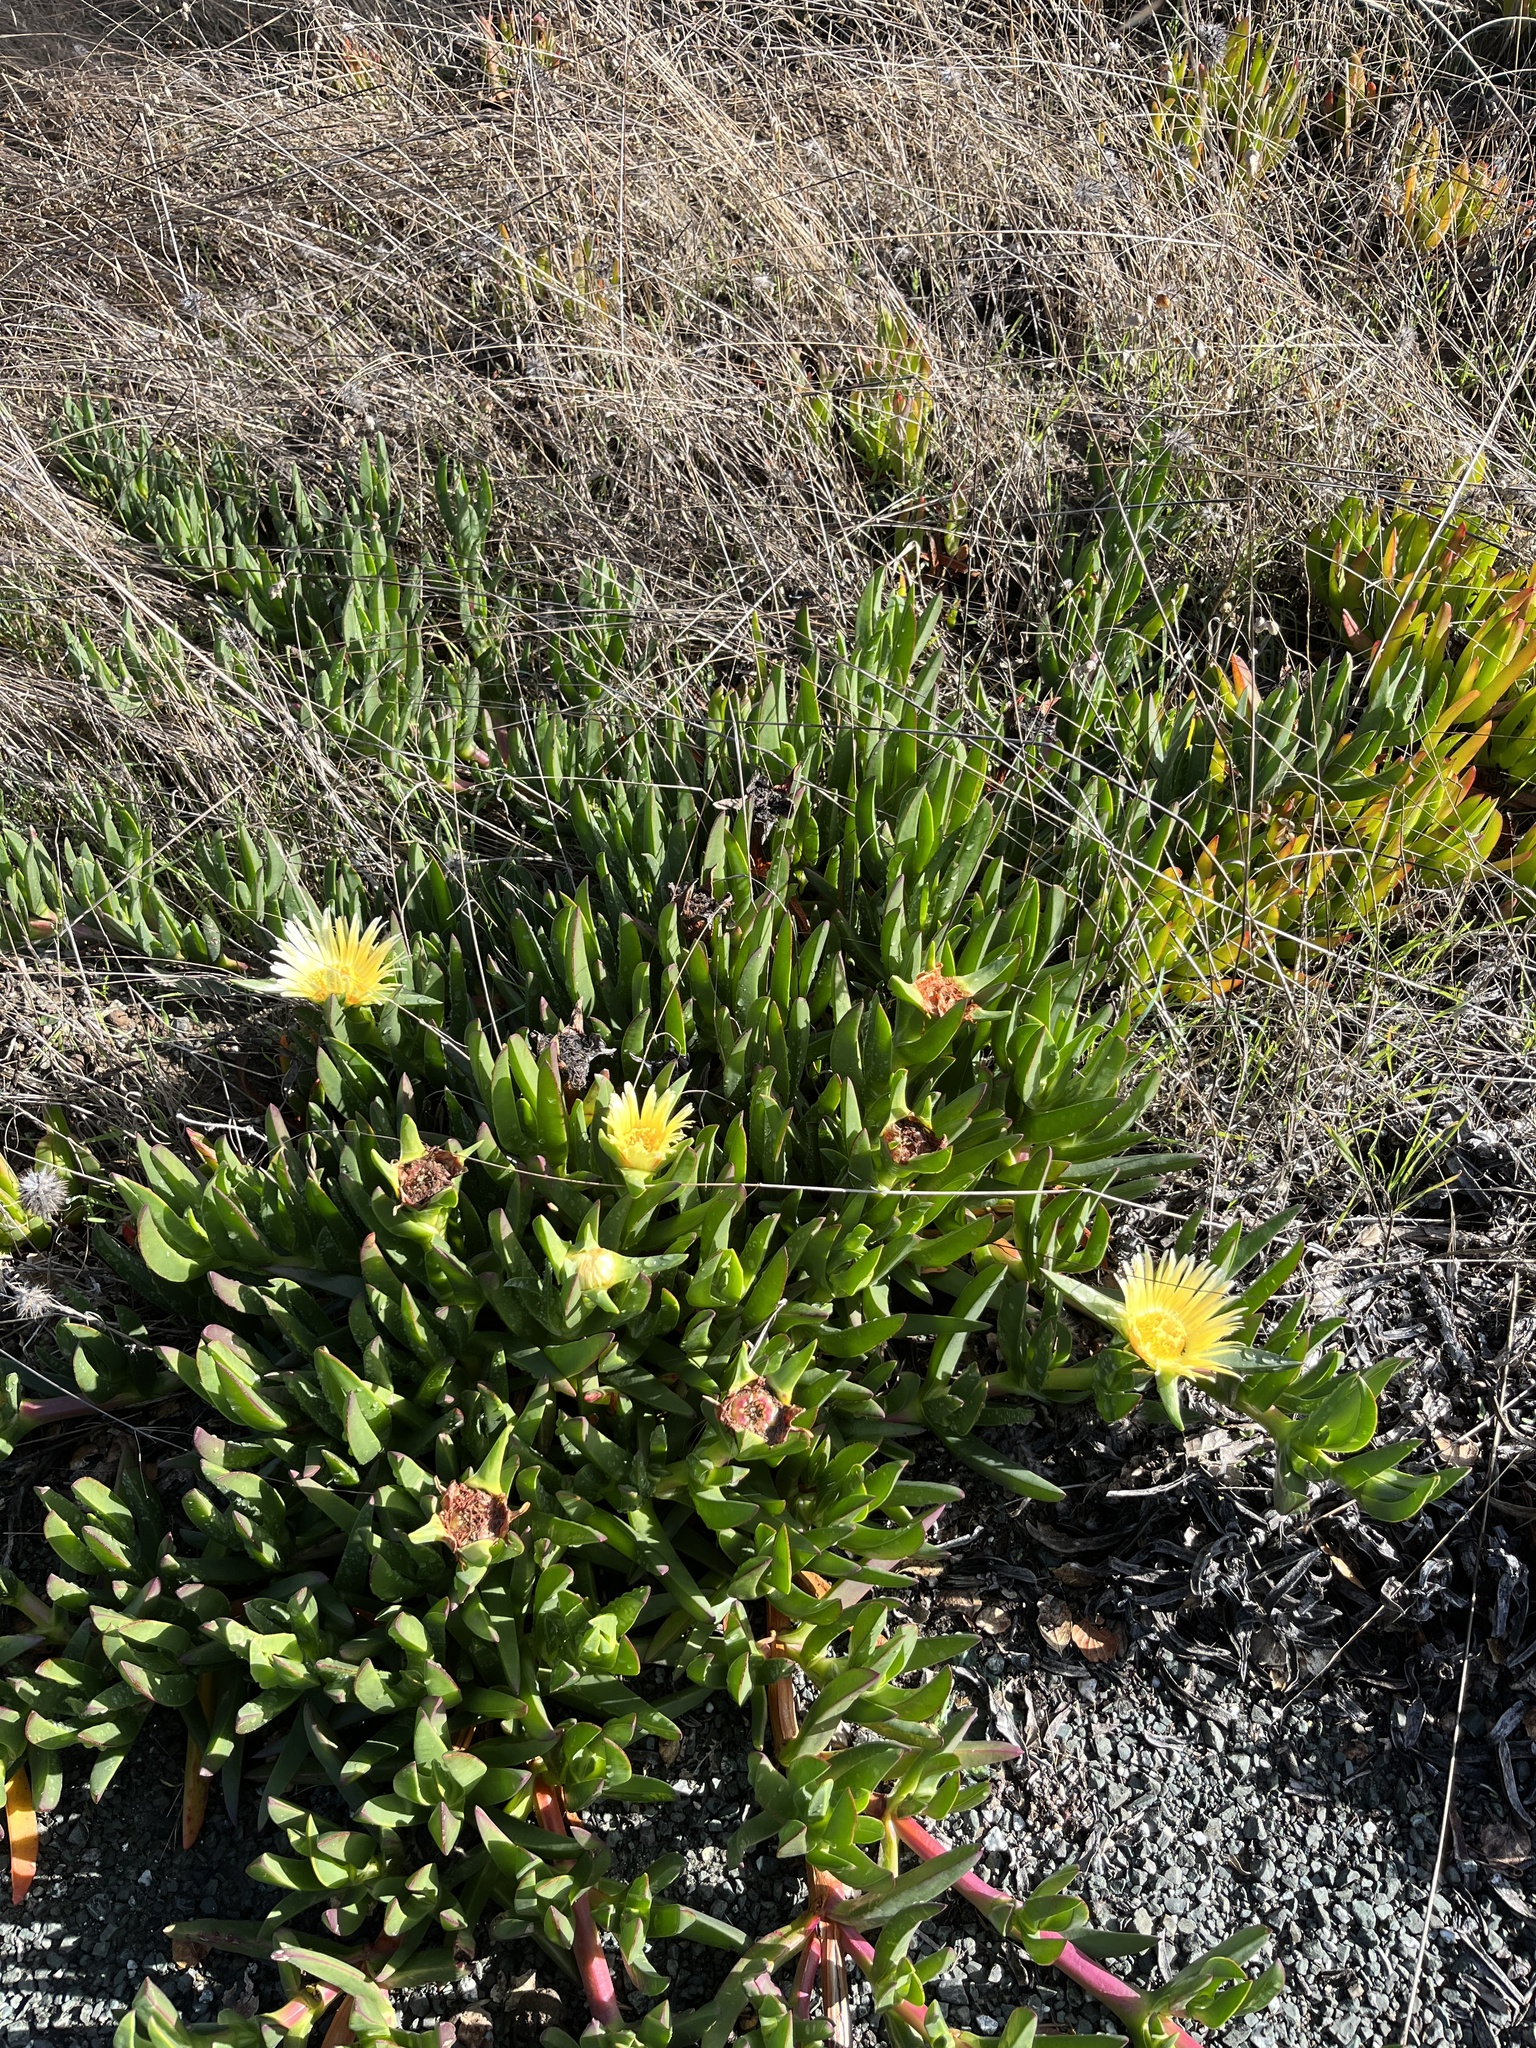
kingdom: Plantae
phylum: Tracheophyta
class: Magnoliopsida
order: Caryophyllales
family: Aizoaceae
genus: Carpobrotus
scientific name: Carpobrotus edulis
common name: Hottentot-fig
